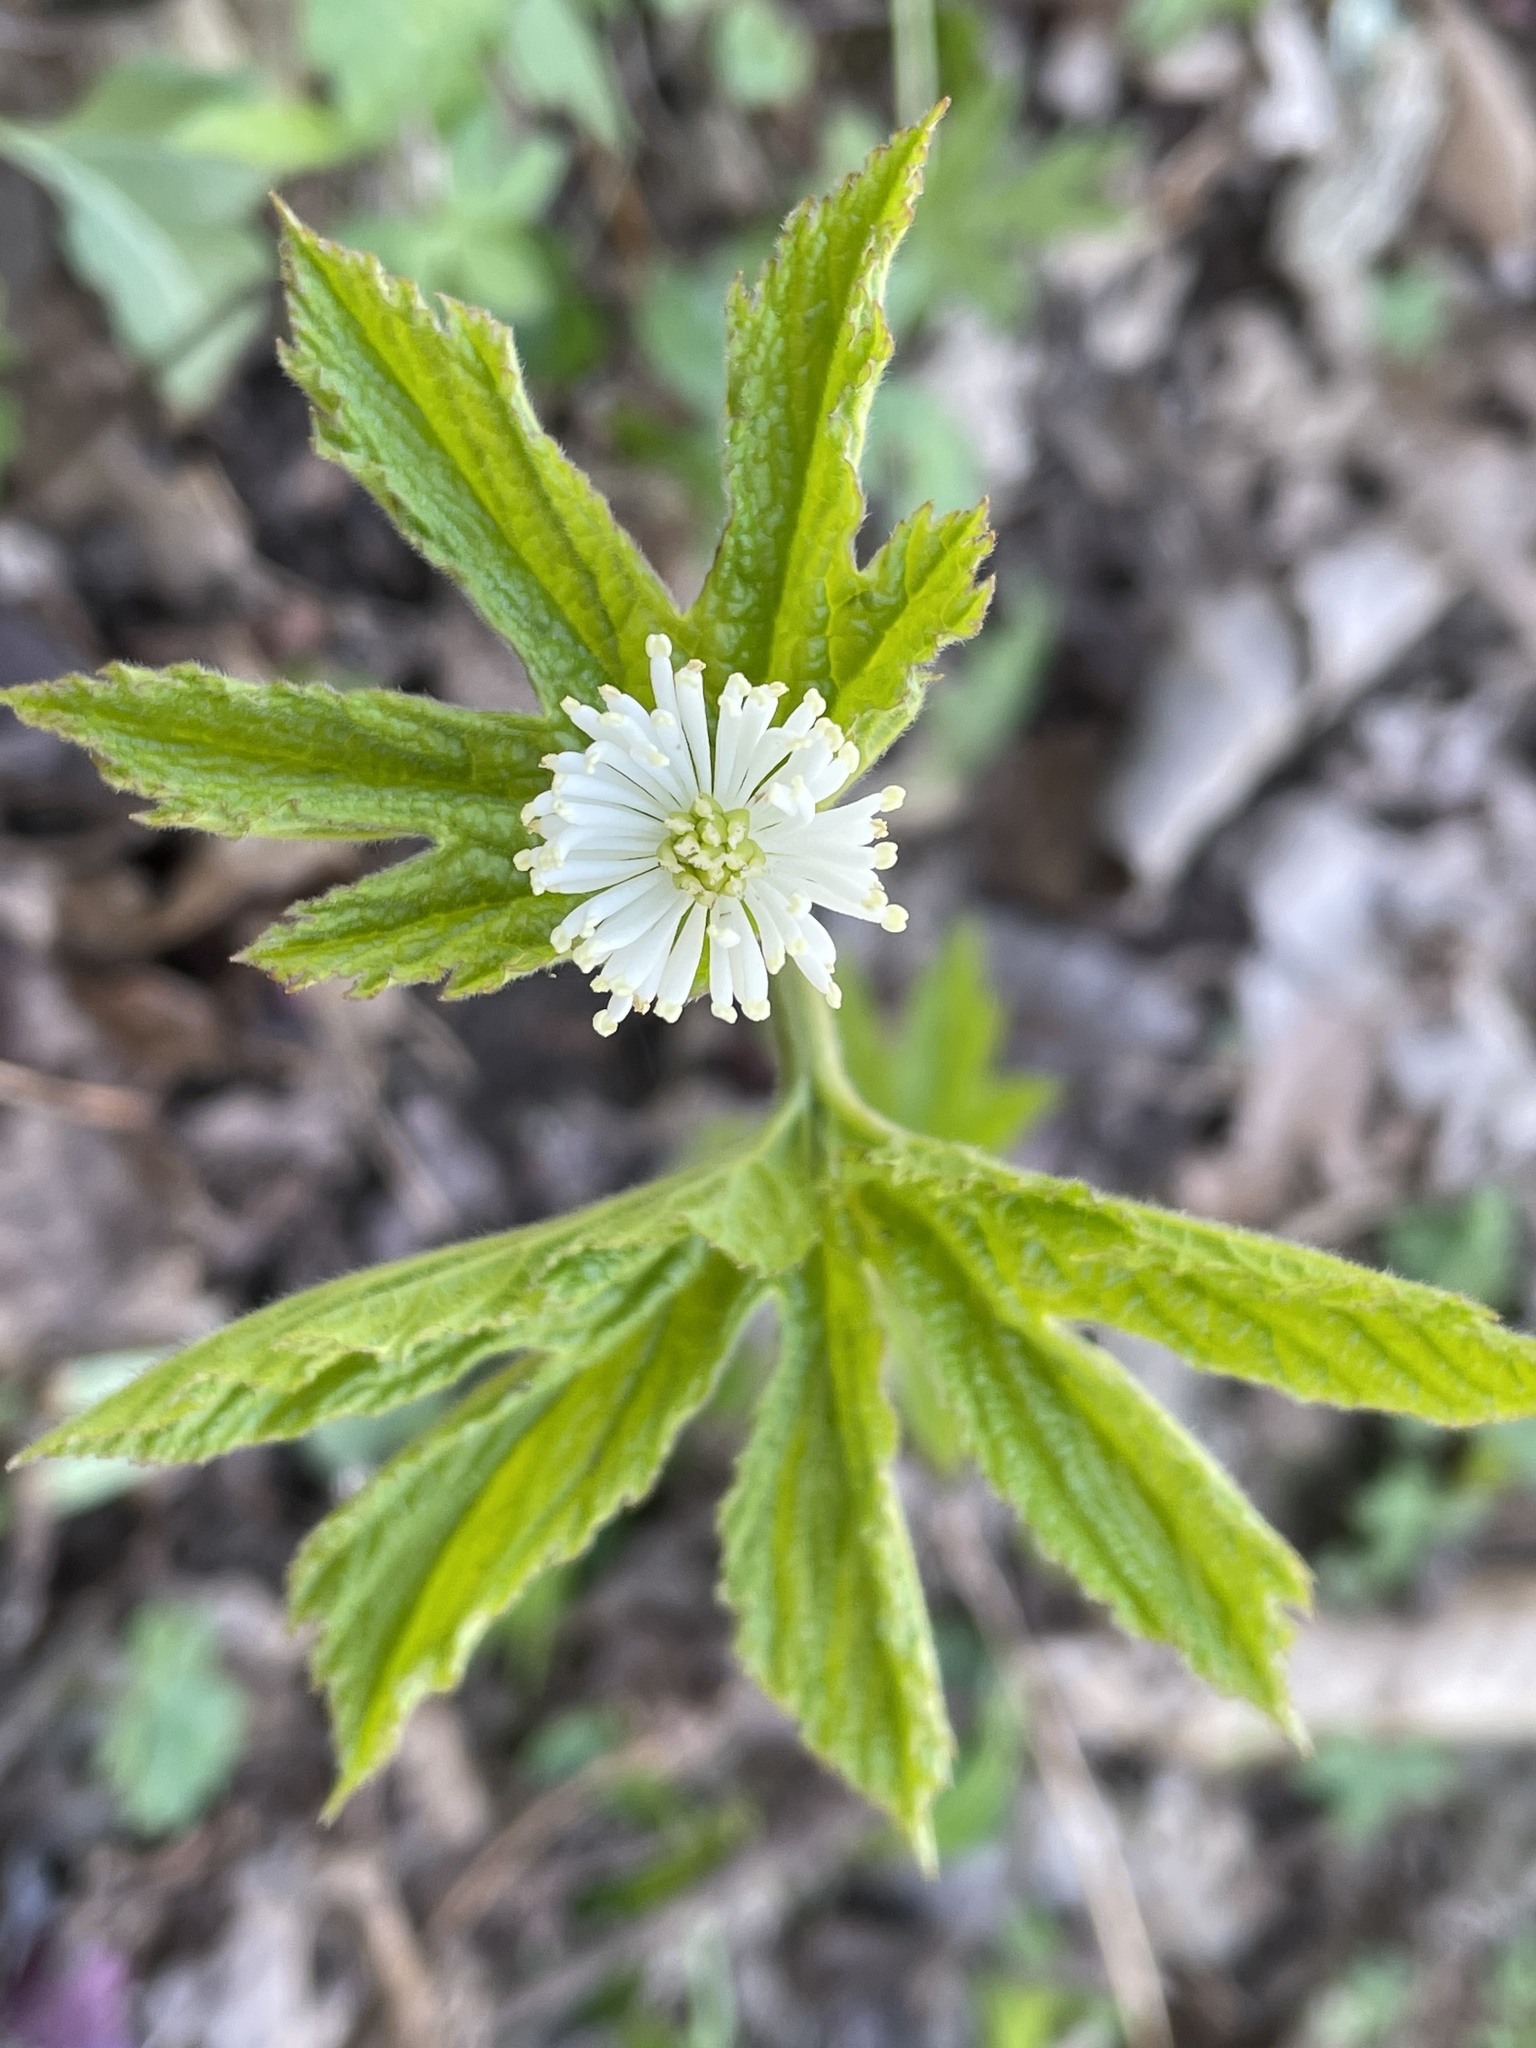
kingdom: Plantae
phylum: Tracheophyta
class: Magnoliopsida
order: Ranunculales
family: Ranunculaceae
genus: Hydrastis
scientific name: Hydrastis canadensis
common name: Goldenseal
